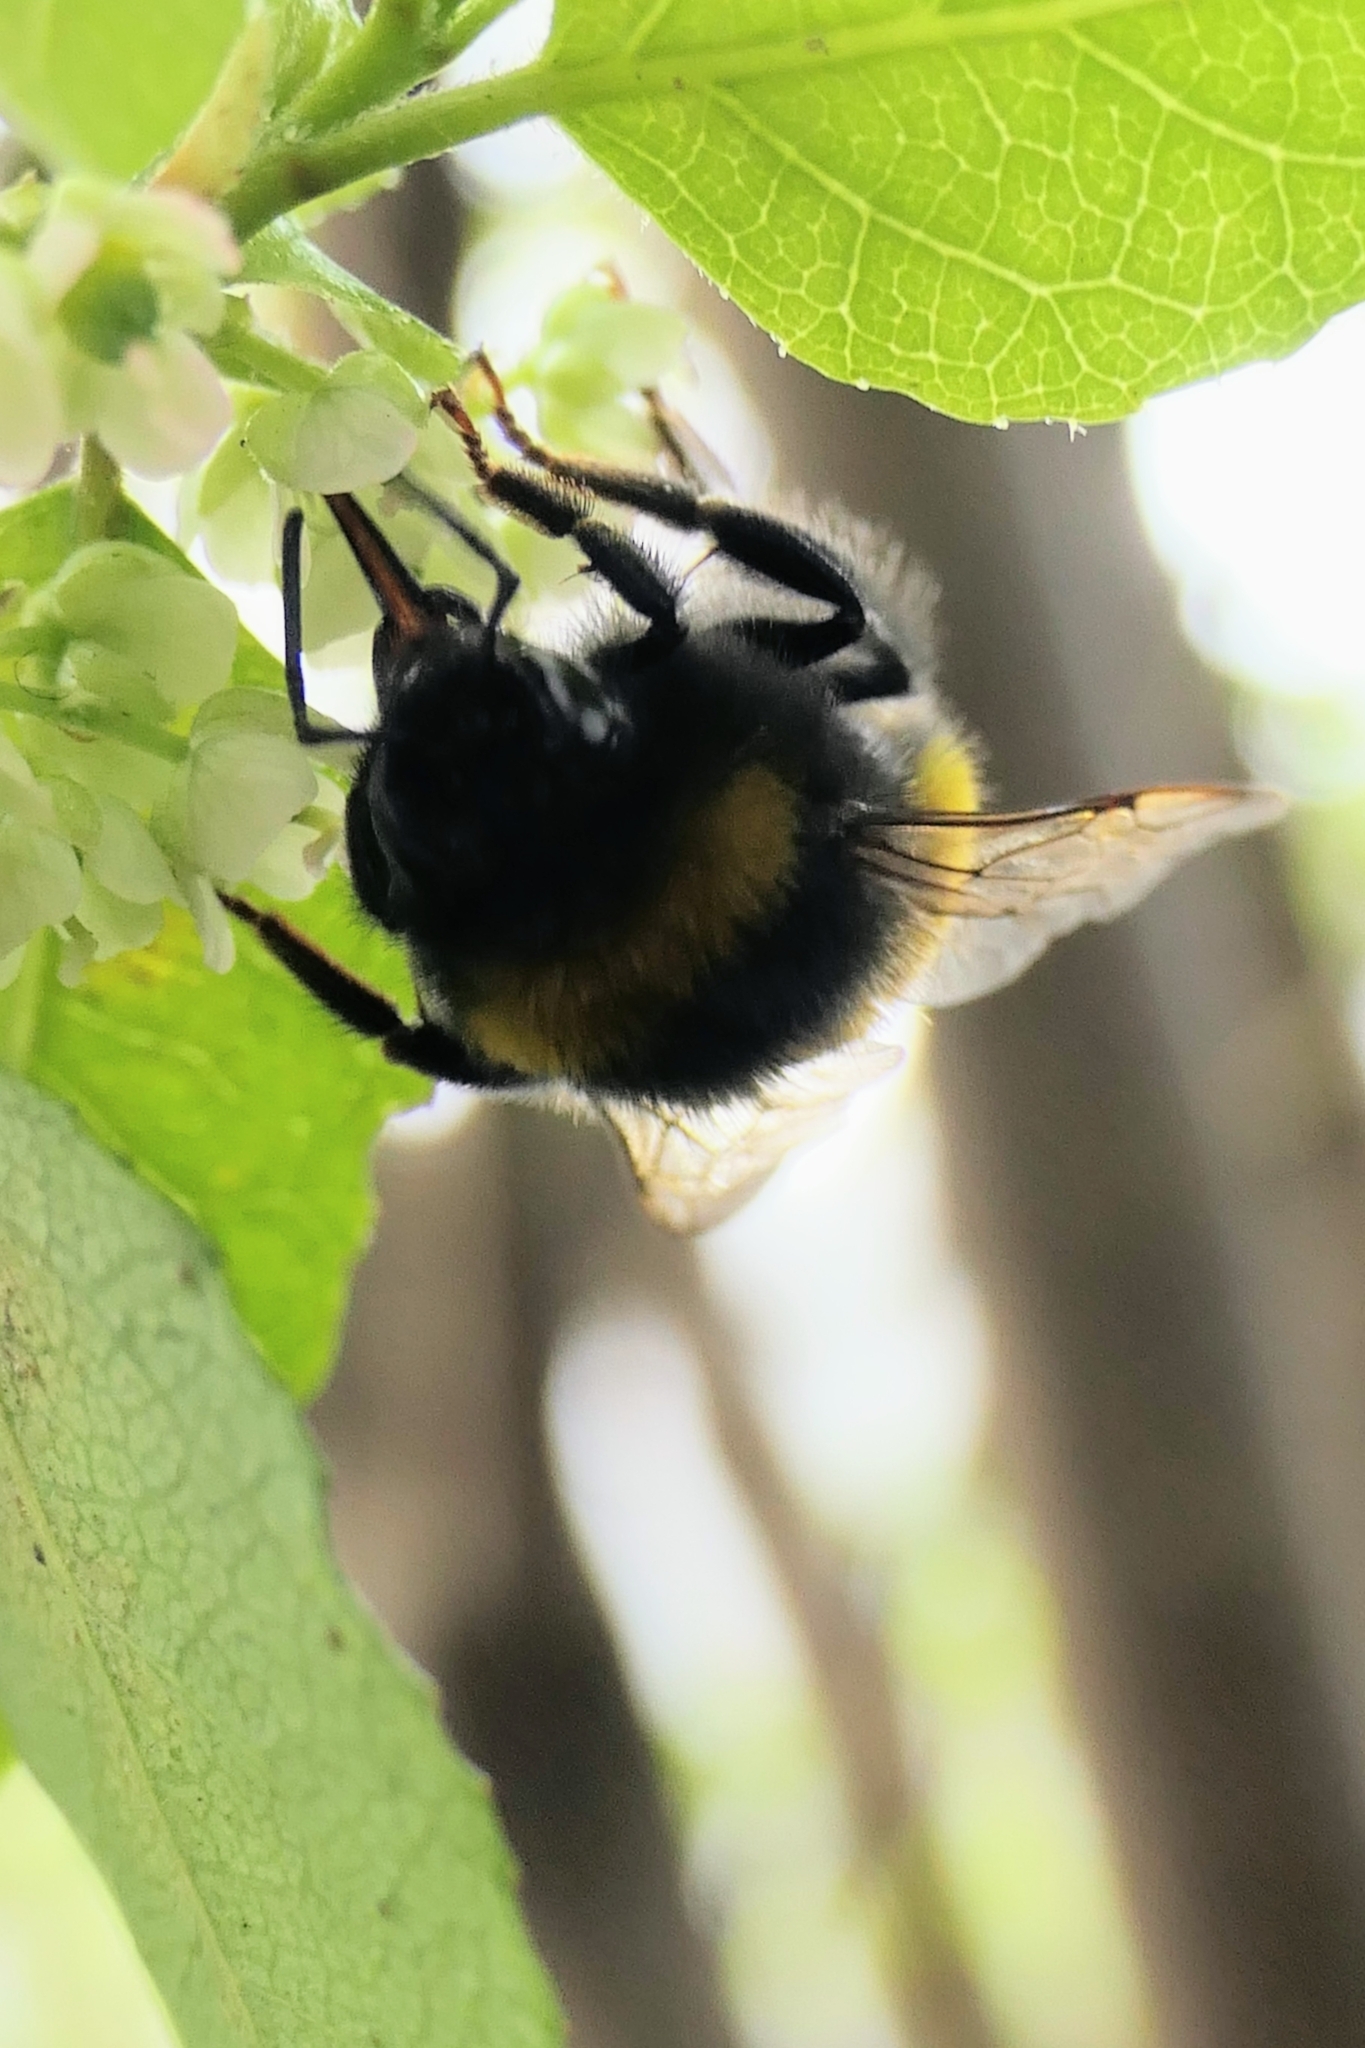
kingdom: Animalia
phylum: Arthropoda
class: Insecta
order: Hymenoptera
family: Apidae
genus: Bombus
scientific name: Bombus terrestris
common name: Buff-tailed bumblebee
